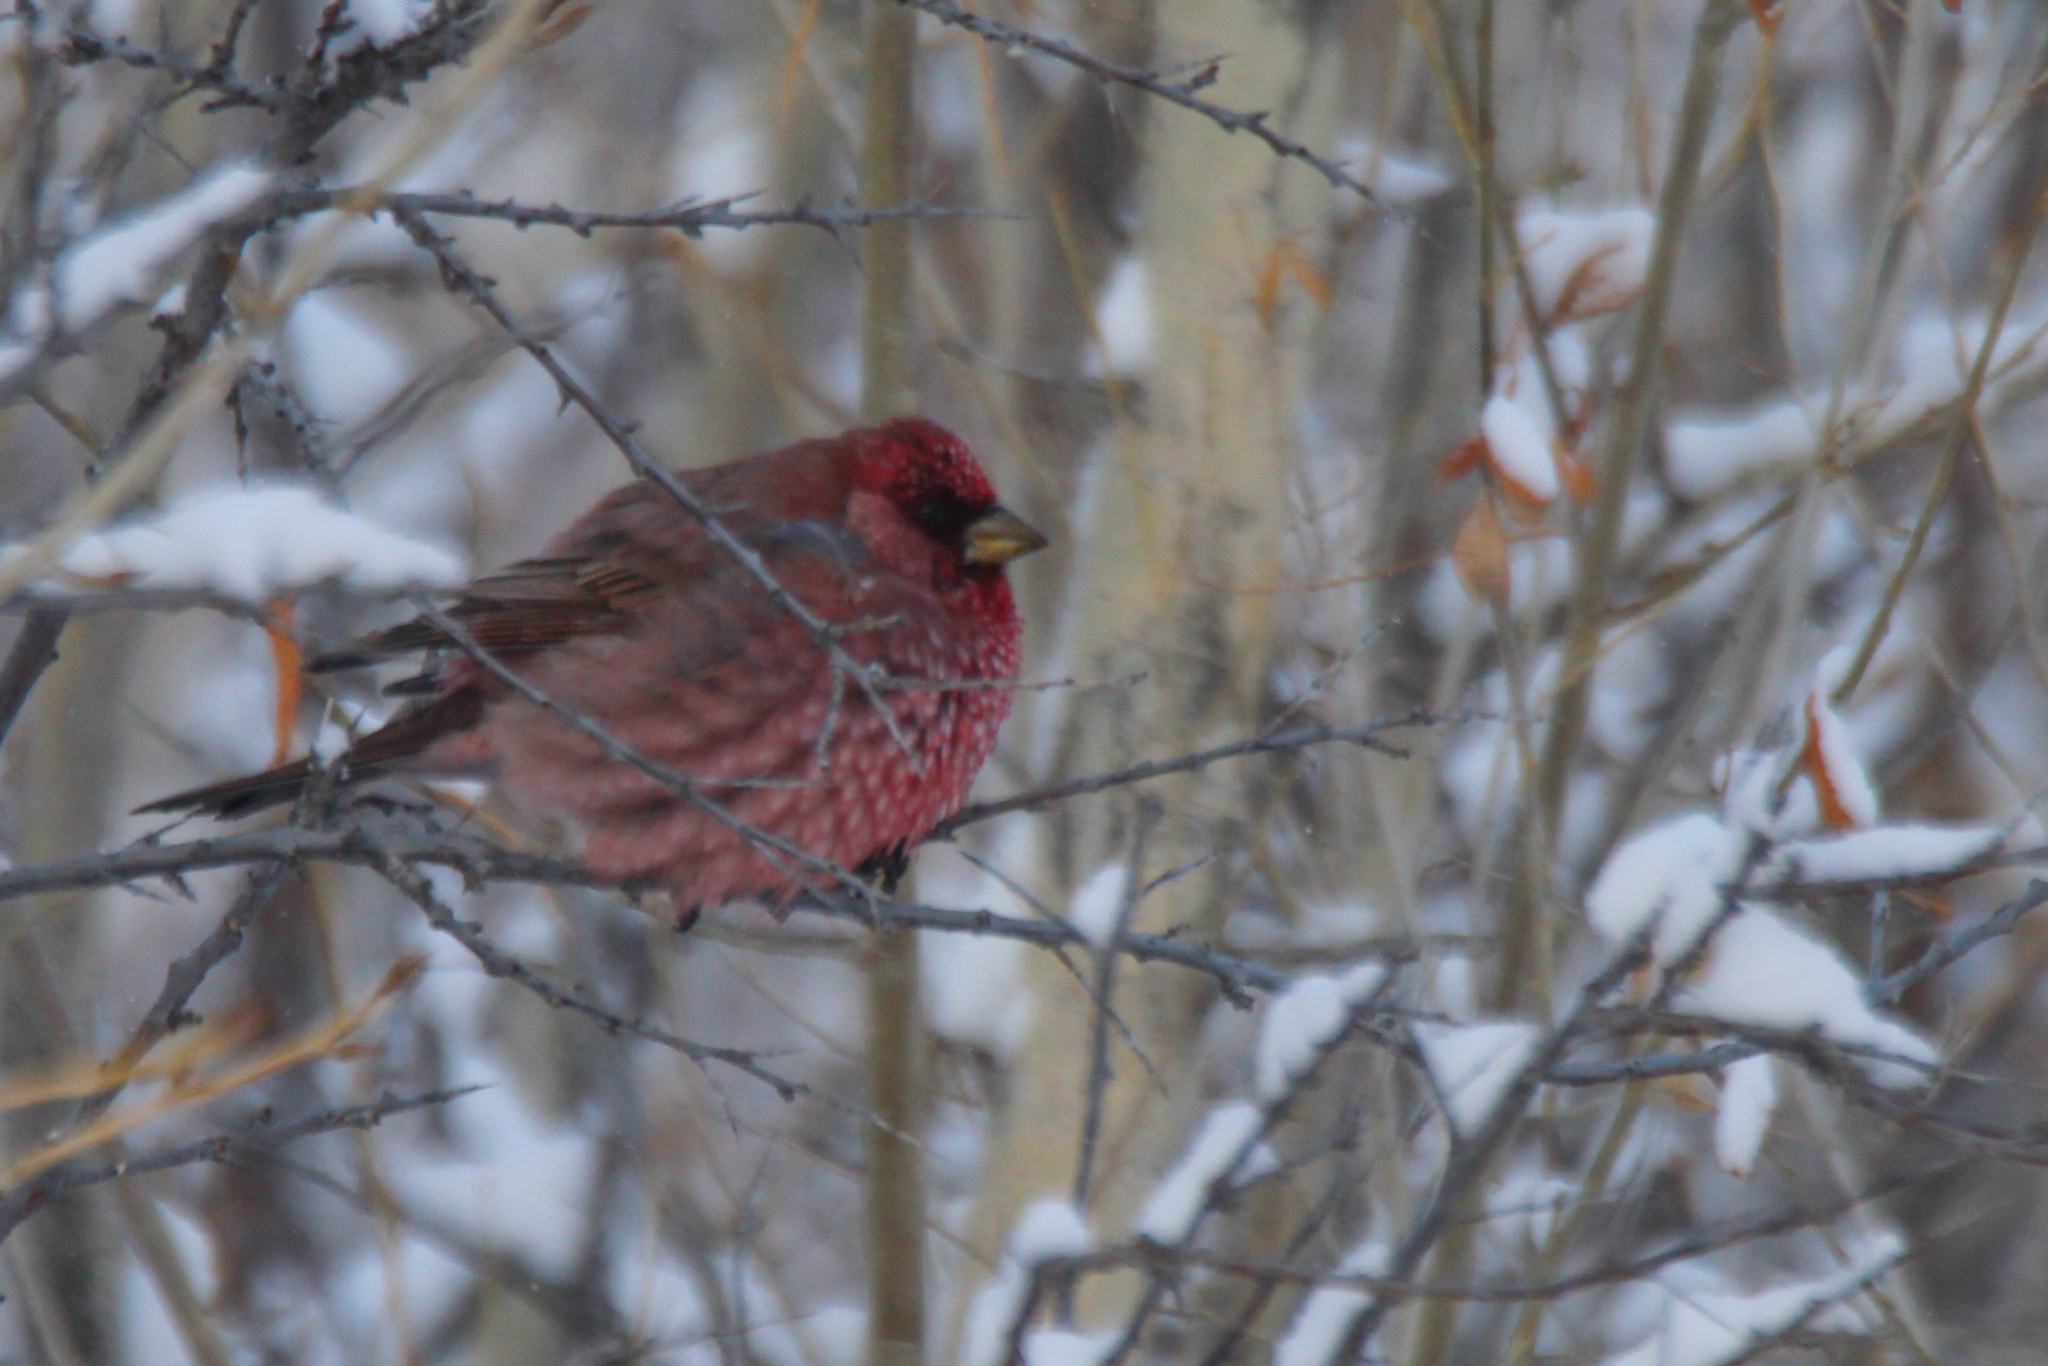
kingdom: Animalia
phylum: Chordata
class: Aves
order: Passeriformes
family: Fringillidae
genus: Carpodacus
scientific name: Carpodacus rubicilla
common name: Great rosefinch
